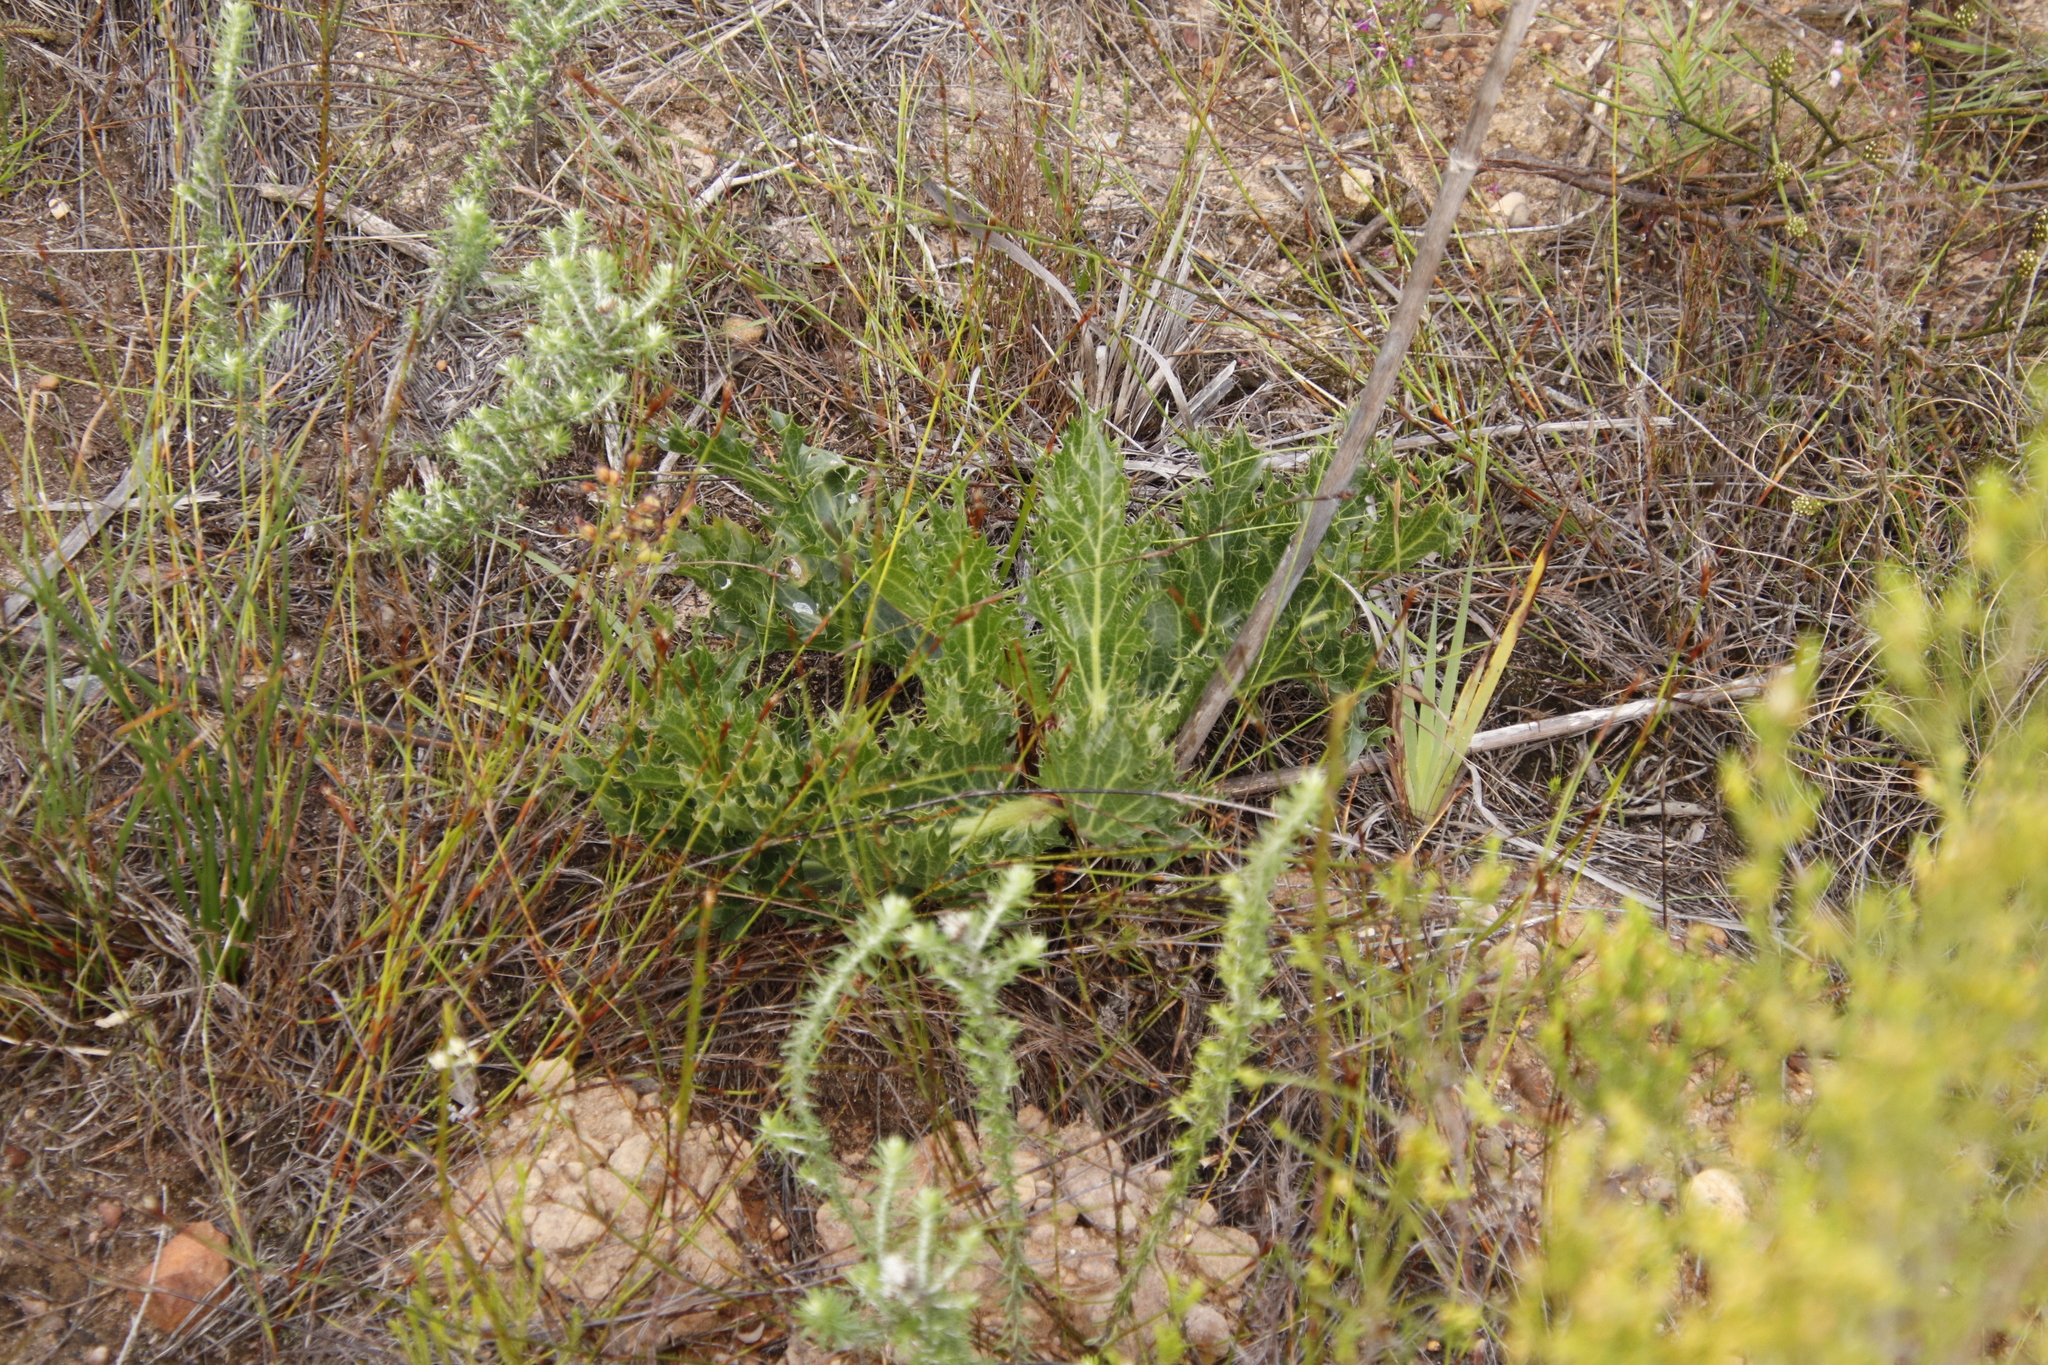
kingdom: Plantae
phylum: Tracheophyta
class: Magnoliopsida
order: Apiales
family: Apiaceae
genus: Lichtensteinia
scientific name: Lichtensteinia lacera
